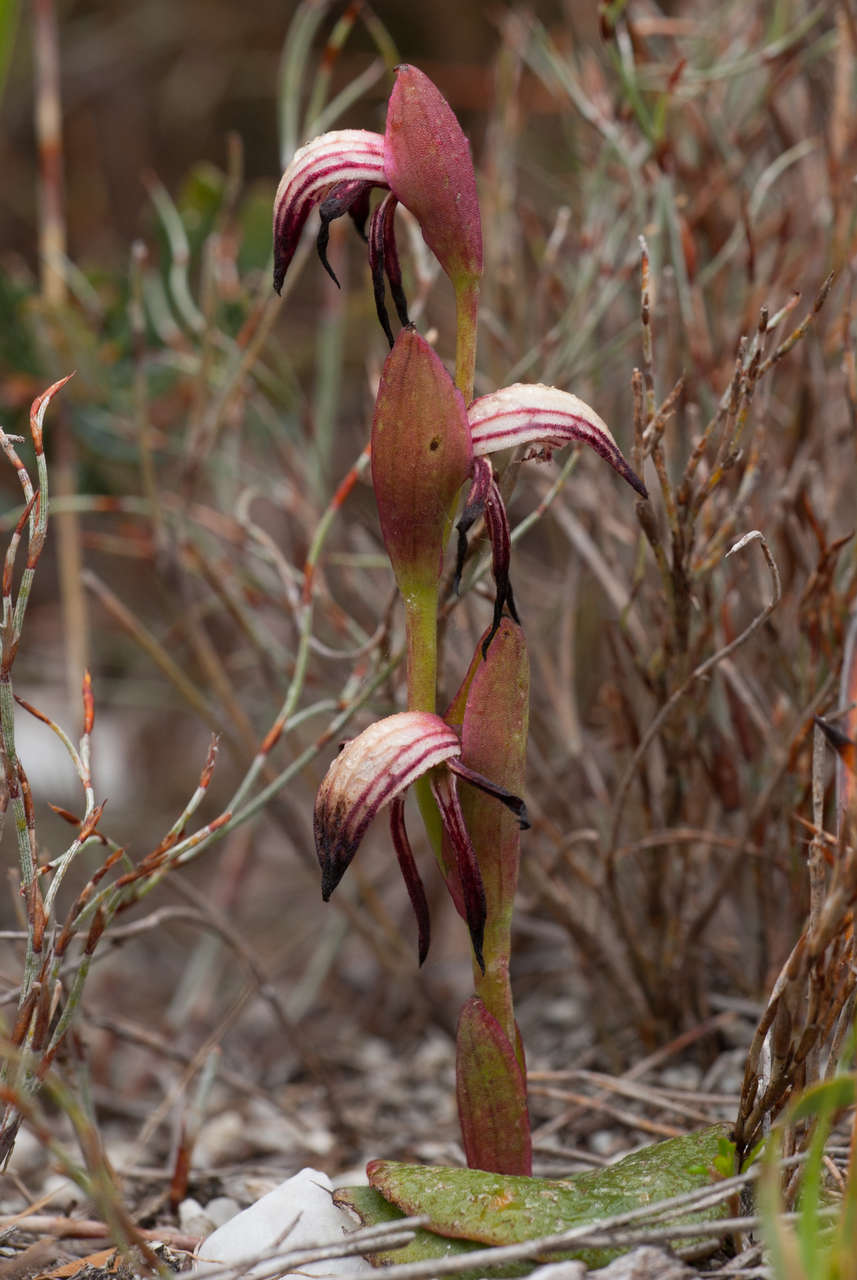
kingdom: Plantae
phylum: Tracheophyta
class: Liliopsida
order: Asparagales
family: Orchidaceae
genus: Pyrorchis
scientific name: Pyrorchis nigricans
